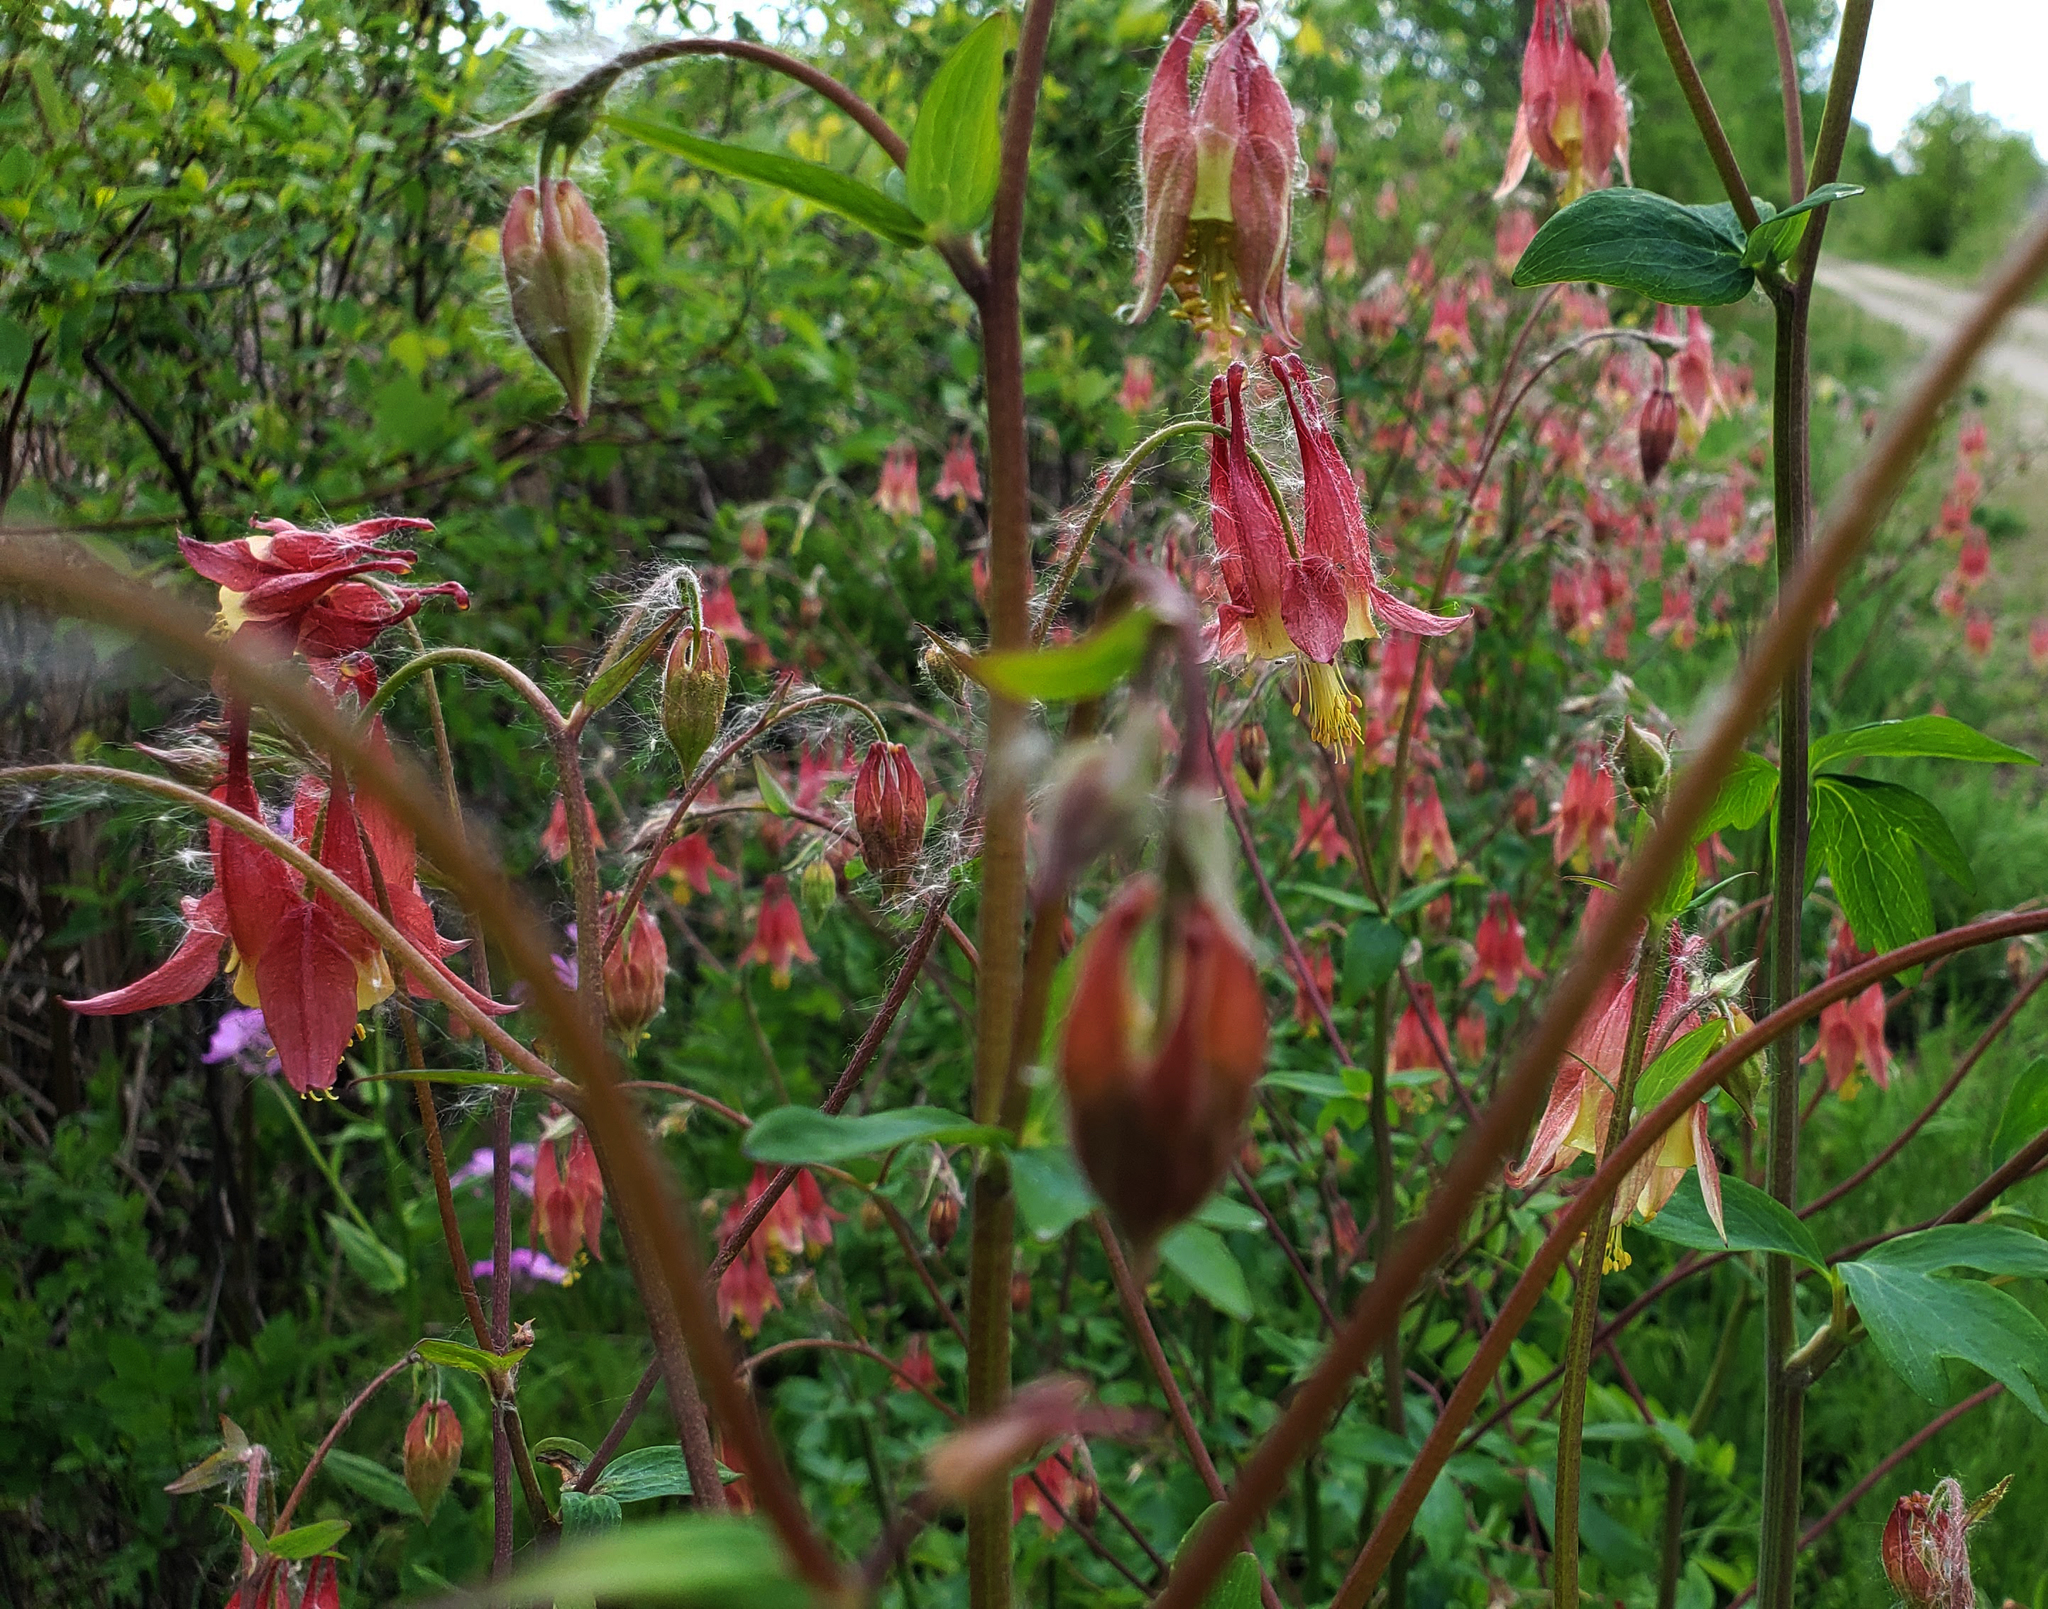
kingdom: Plantae
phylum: Tracheophyta
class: Magnoliopsida
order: Ranunculales
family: Ranunculaceae
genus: Aquilegia
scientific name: Aquilegia canadensis
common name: American columbine
